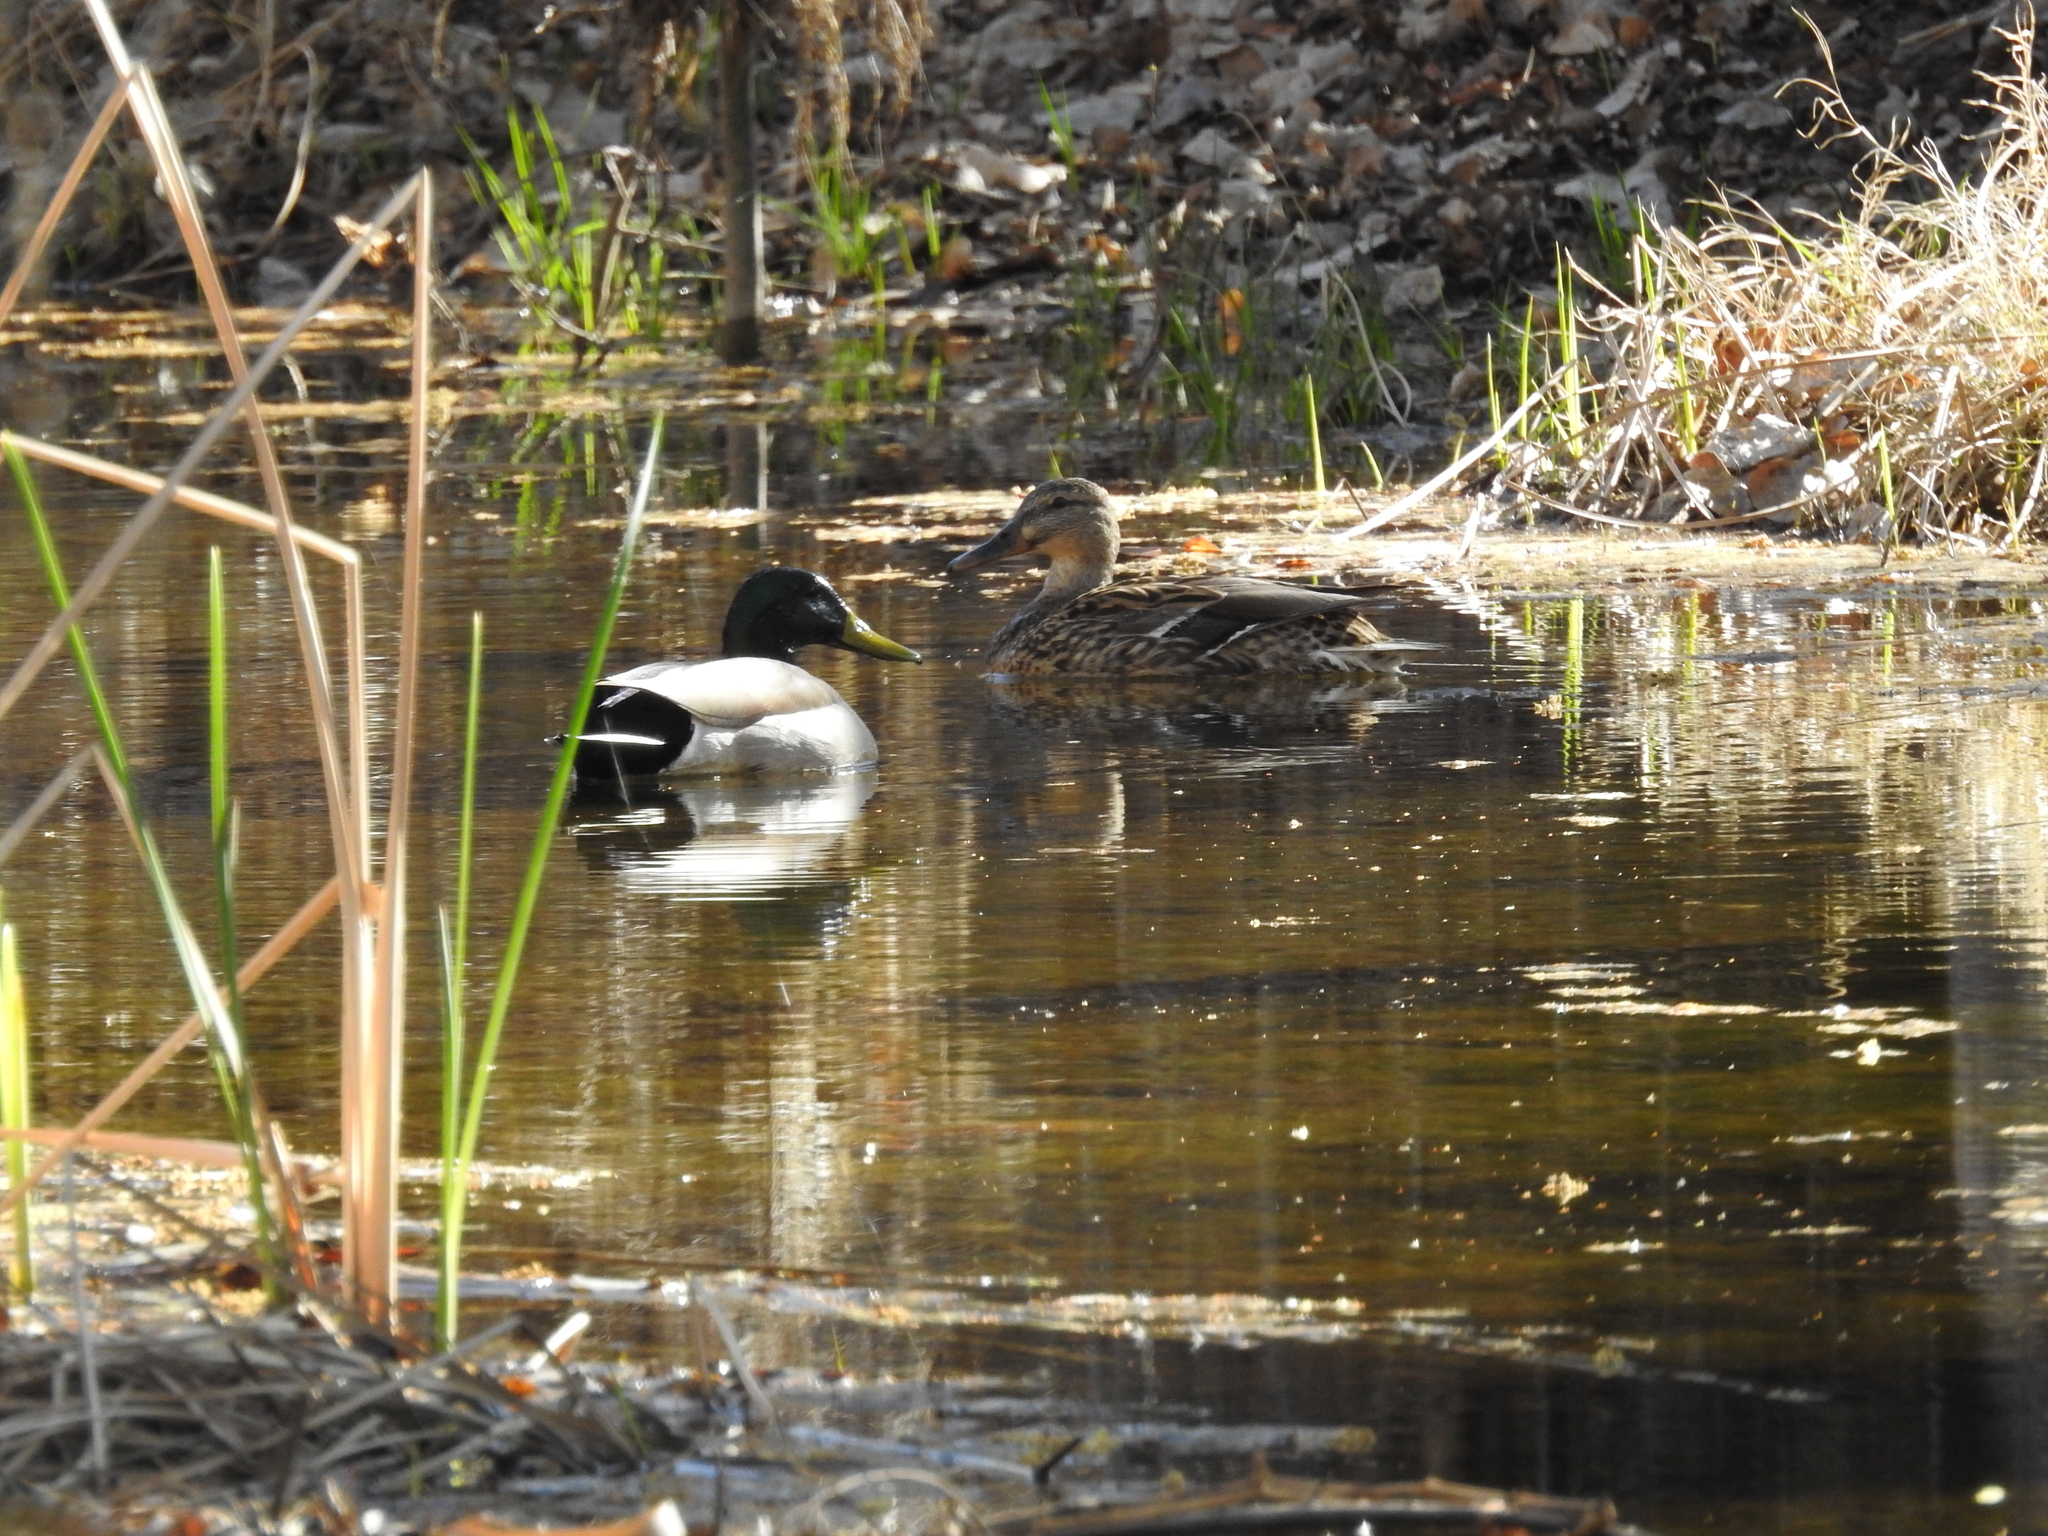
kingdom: Animalia
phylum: Chordata
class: Aves
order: Anseriformes
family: Anatidae
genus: Anas
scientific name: Anas platyrhynchos
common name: Mallard
